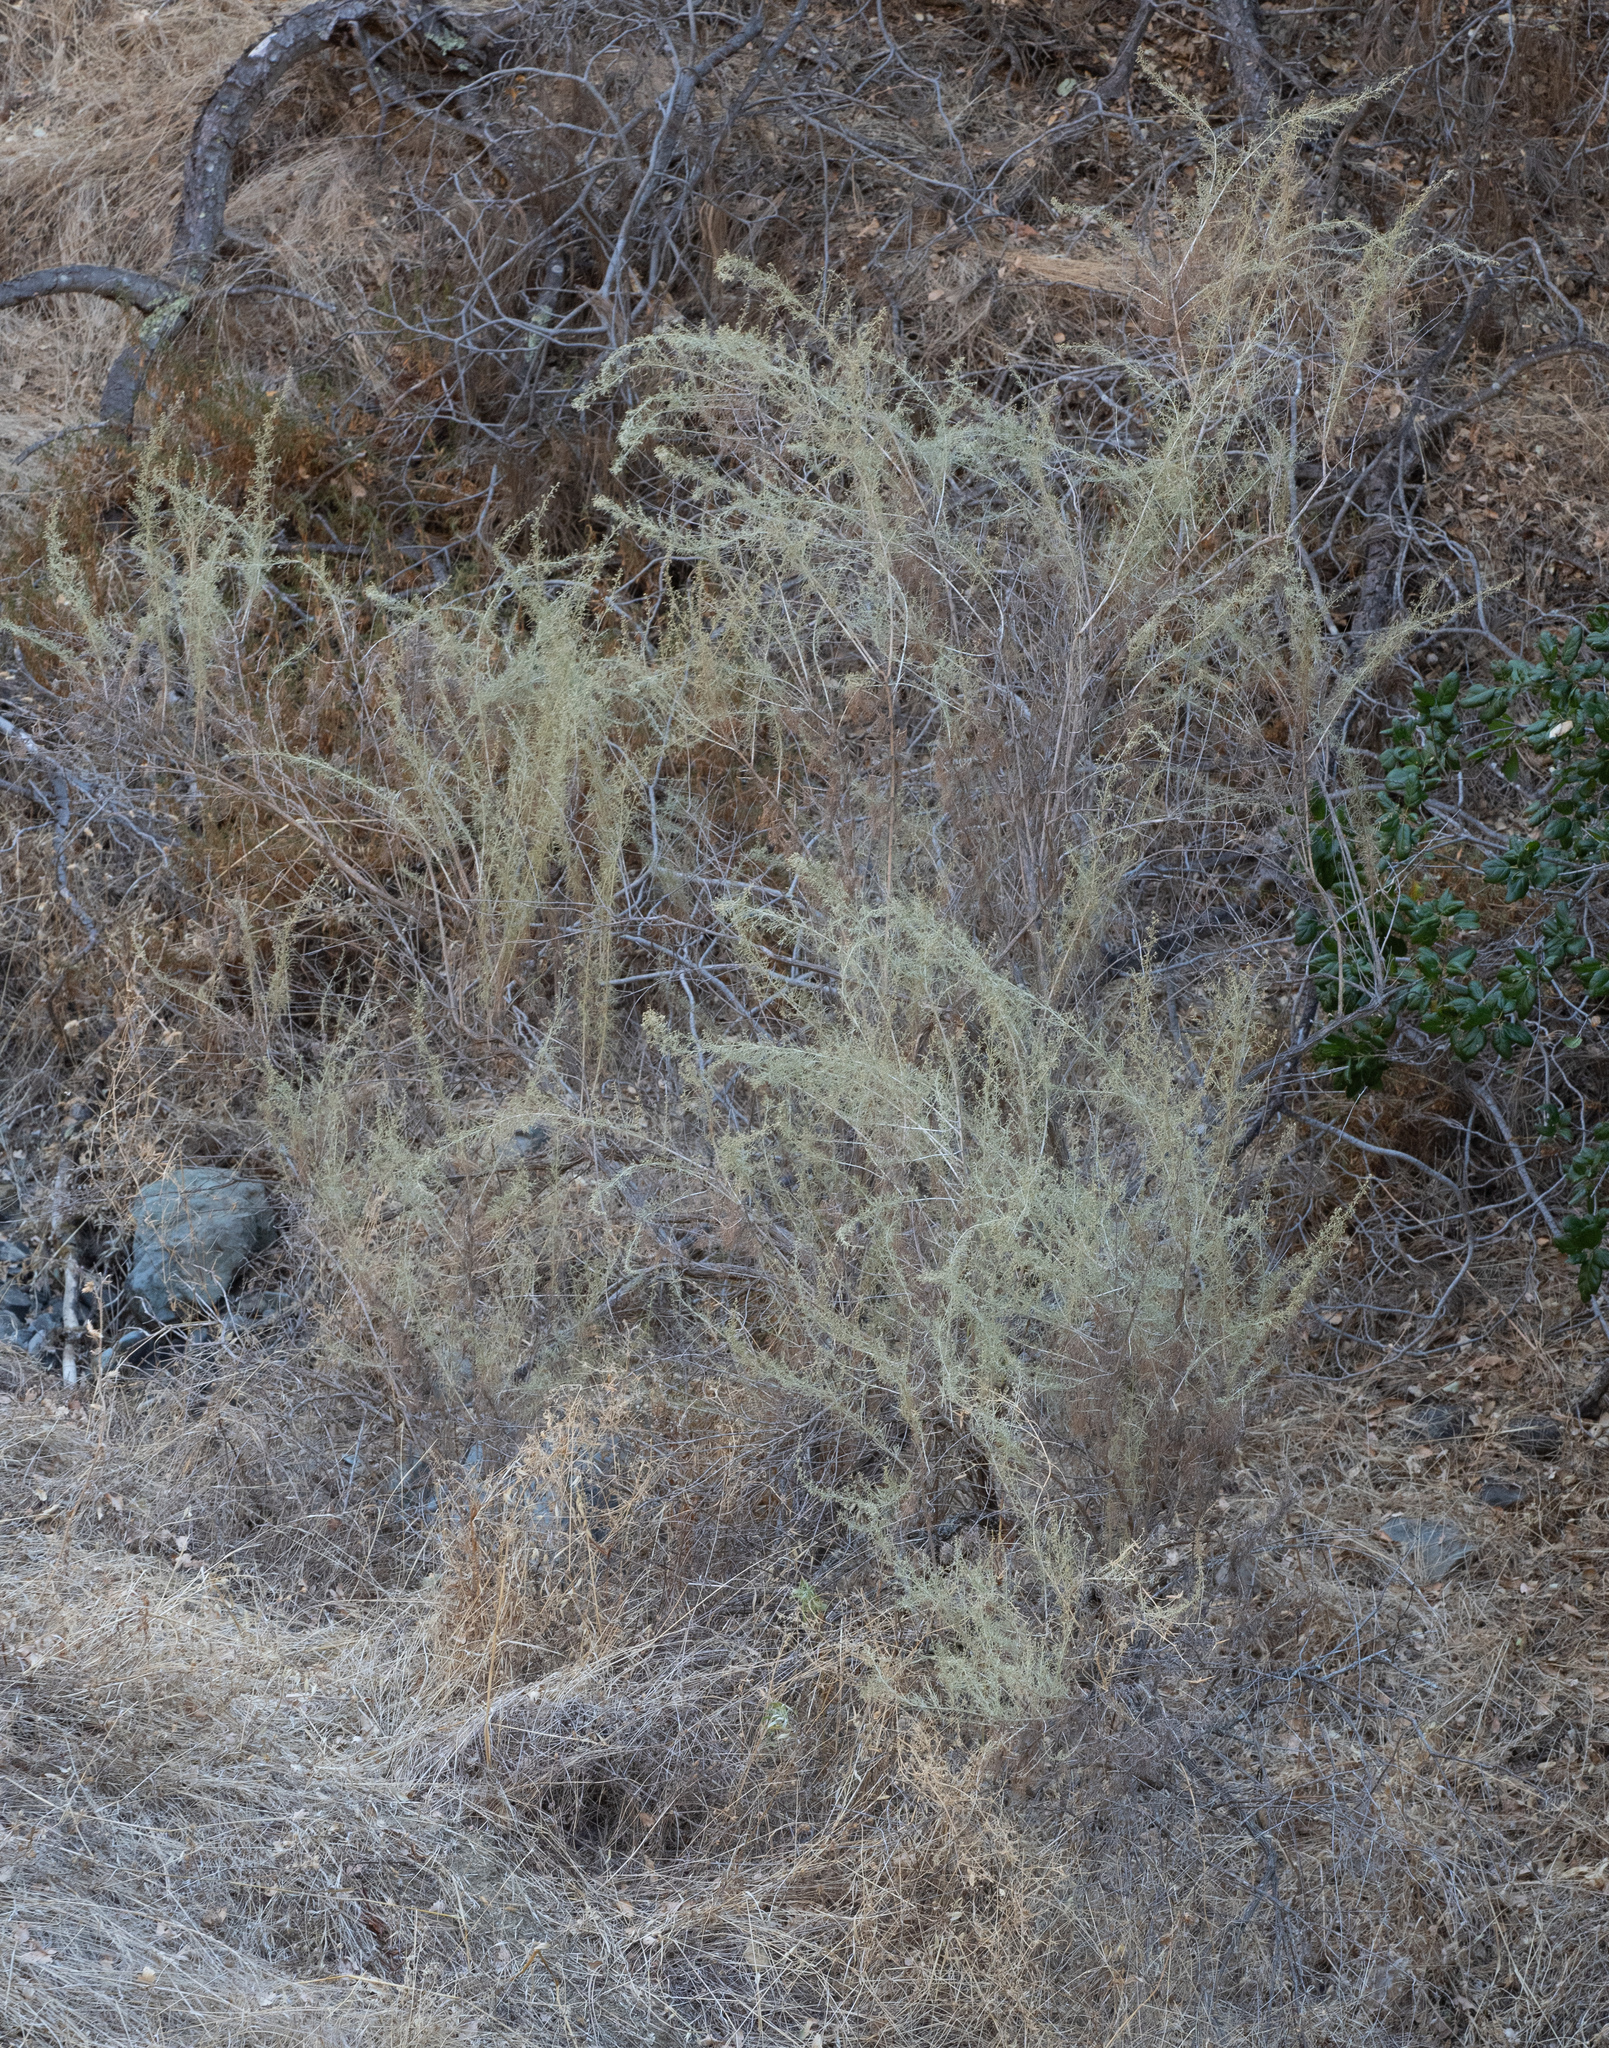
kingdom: Plantae
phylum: Tracheophyta
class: Magnoliopsida
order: Asterales
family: Asteraceae
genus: Artemisia
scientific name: Artemisia californica
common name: California sagebrush
